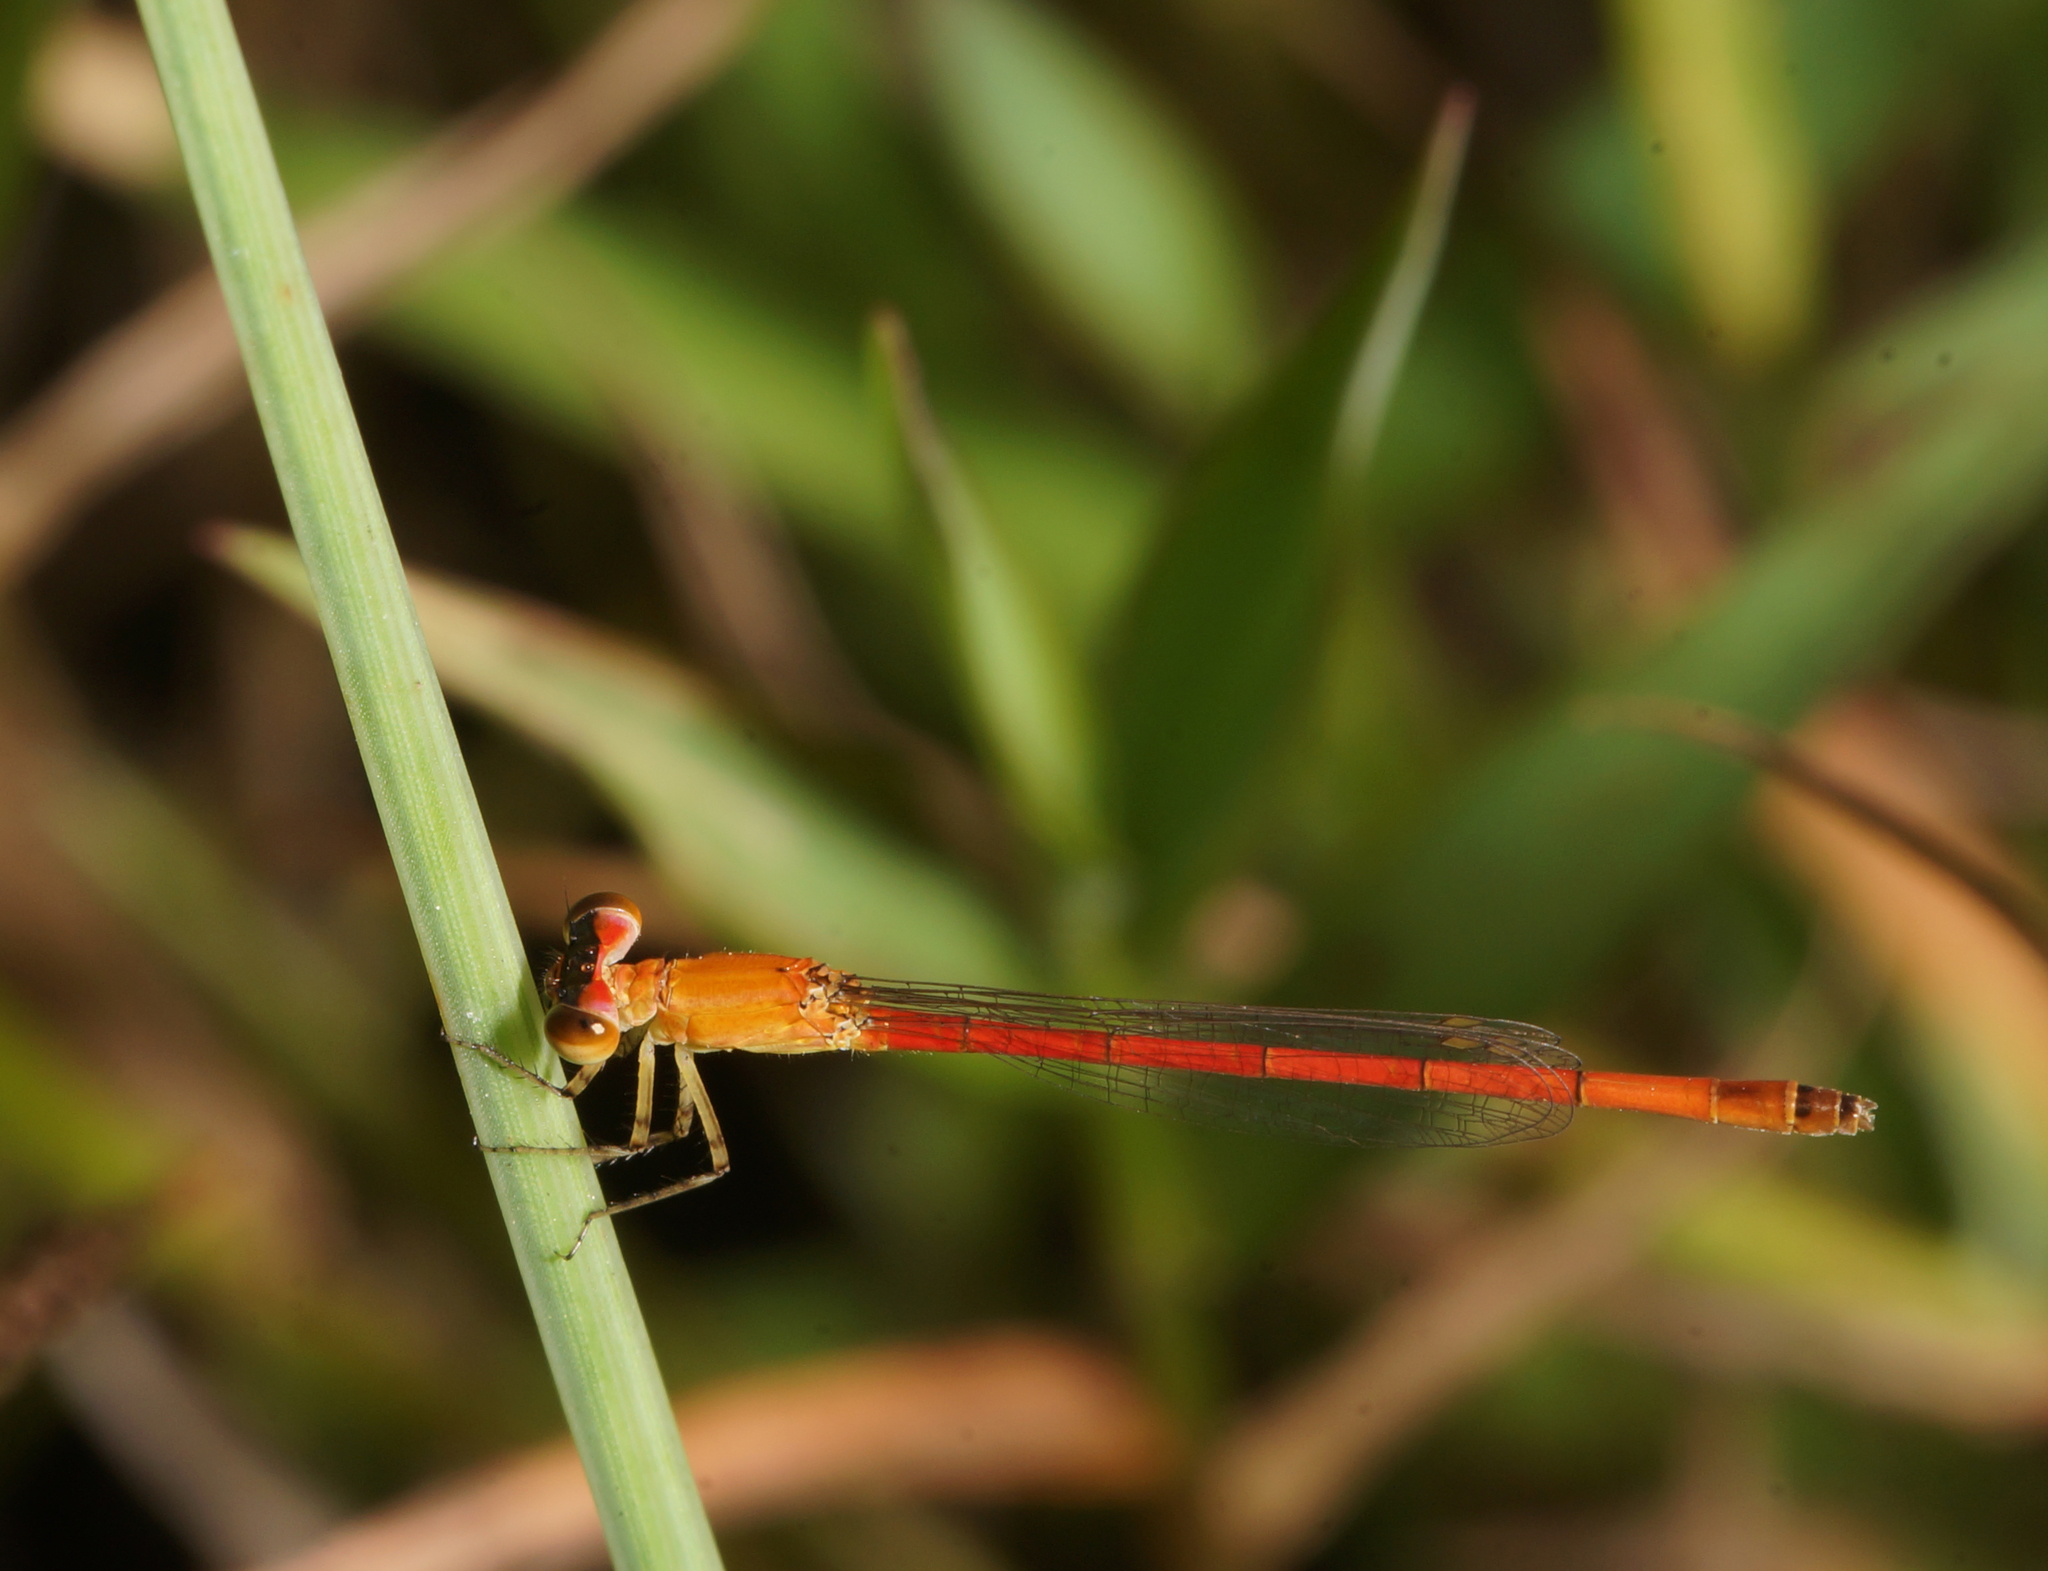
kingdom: Animalia
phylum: Arthropoda
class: Insecta
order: Odonata
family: Coenagrionidae
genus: Agriocnemis
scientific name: Agriocnemis minima
